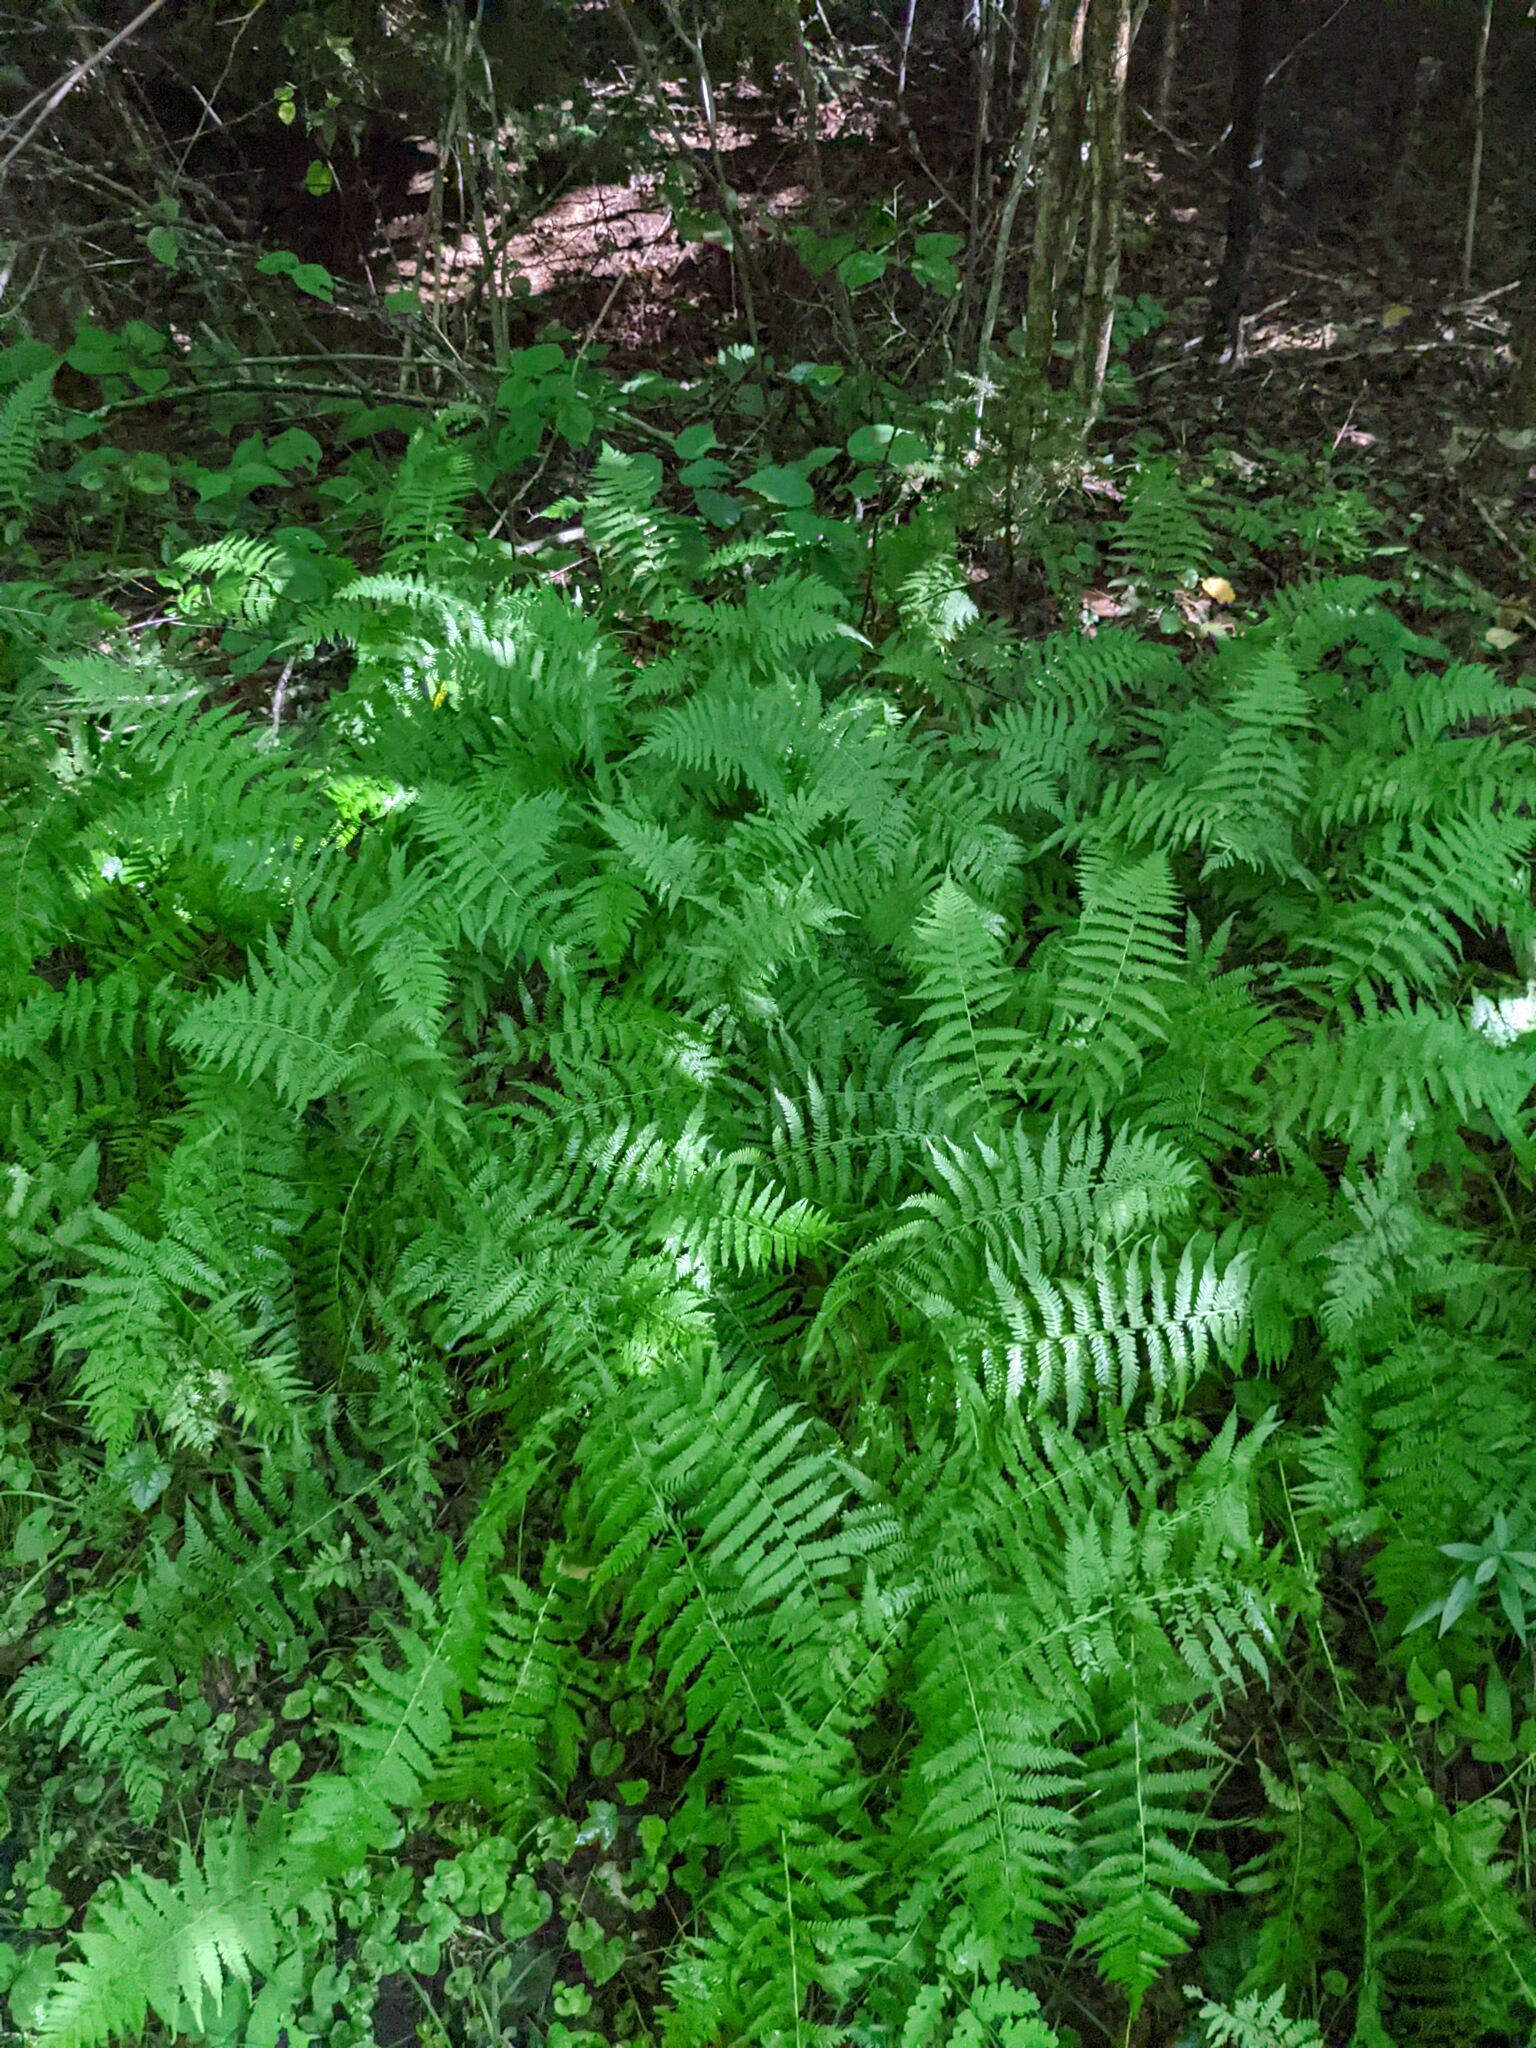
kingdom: Plantae
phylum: Tracheophyta
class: Polypodiopsida
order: Polypodiales
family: Thelypteridaceae
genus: Amauropelta
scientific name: Amauropelta noveboracensis
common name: New york fern
